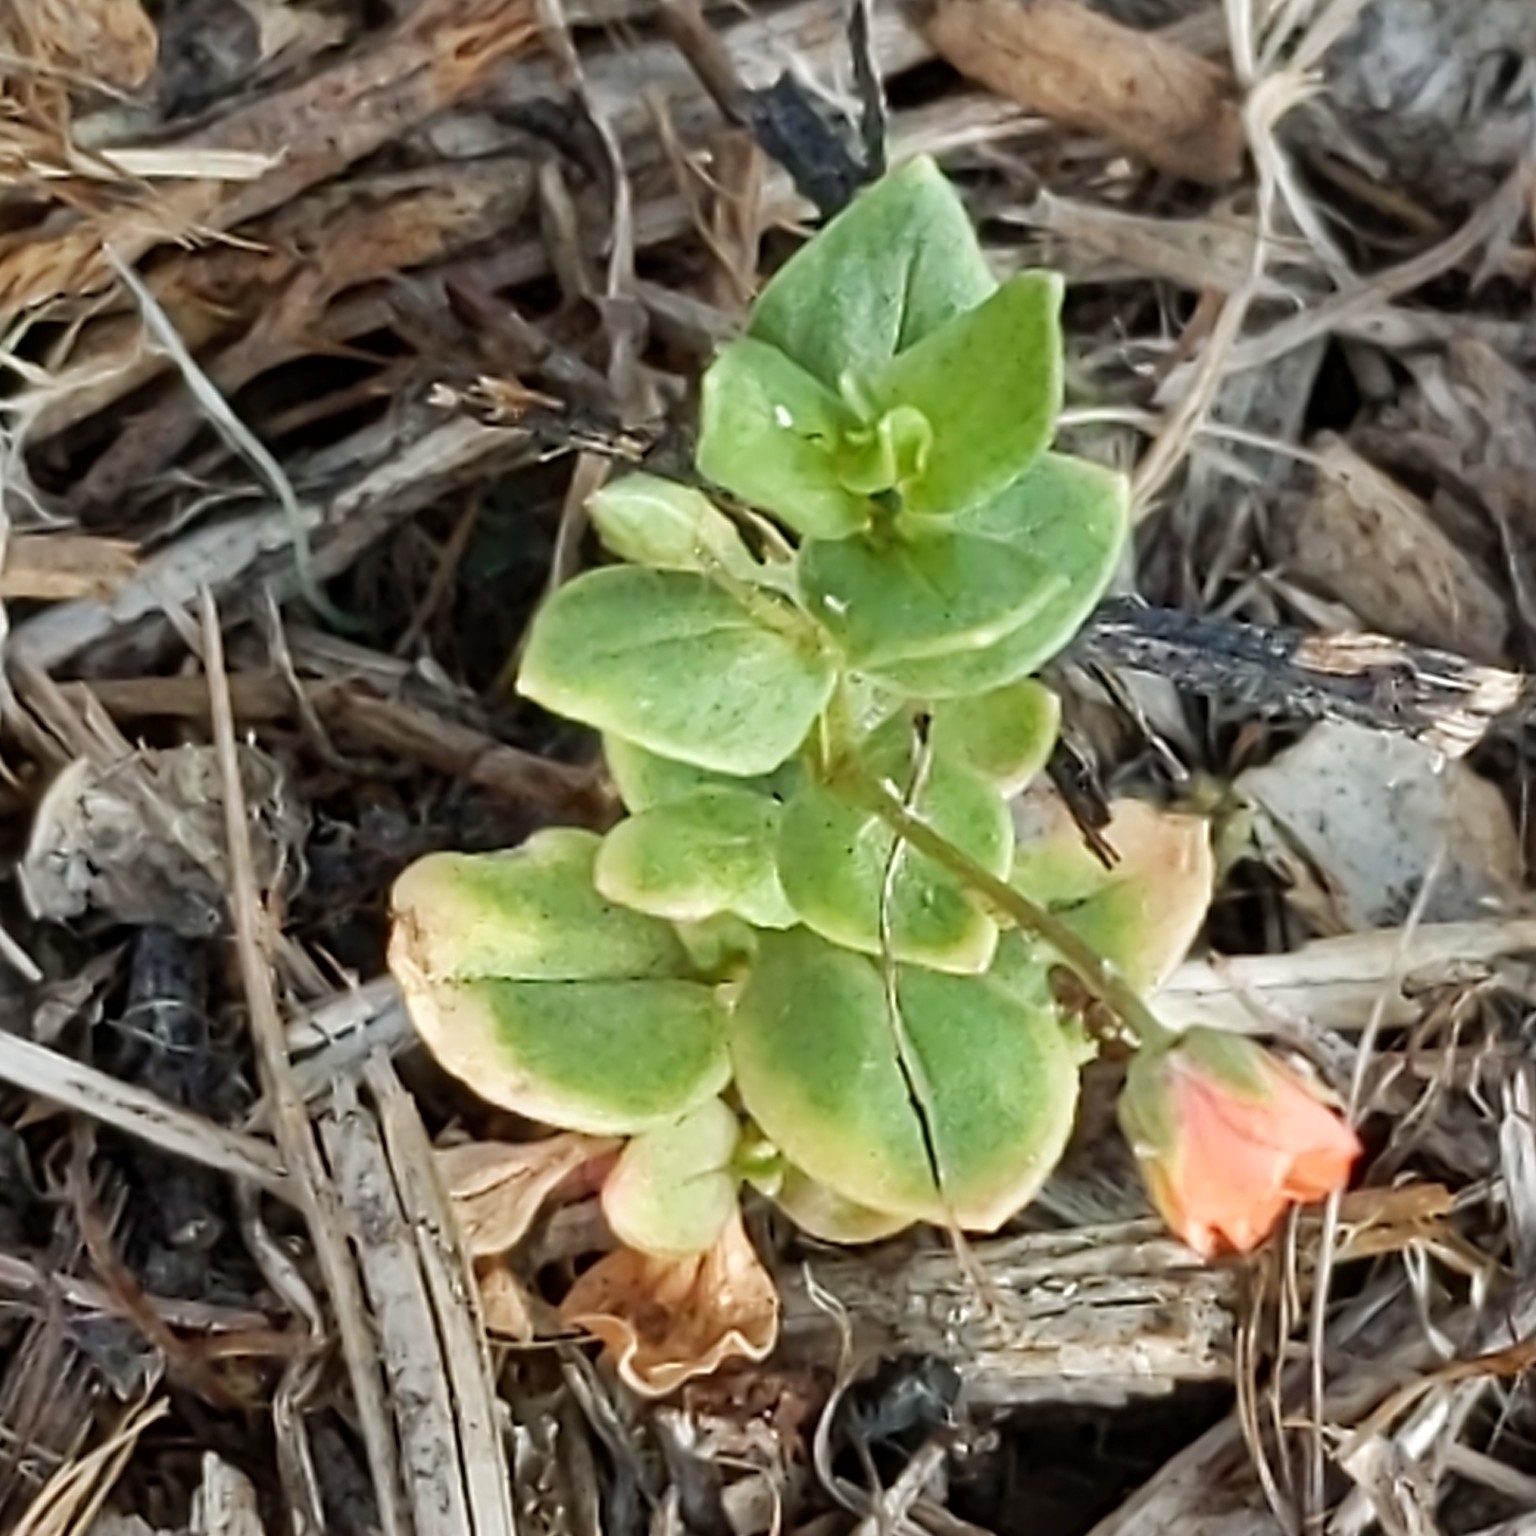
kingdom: Plantae
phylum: Tracheophyta
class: Magnoliopsida
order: Ericales
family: Primulaceae
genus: Lysimachia
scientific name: Lysimachia arvensis
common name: Scarlet pimpernel
